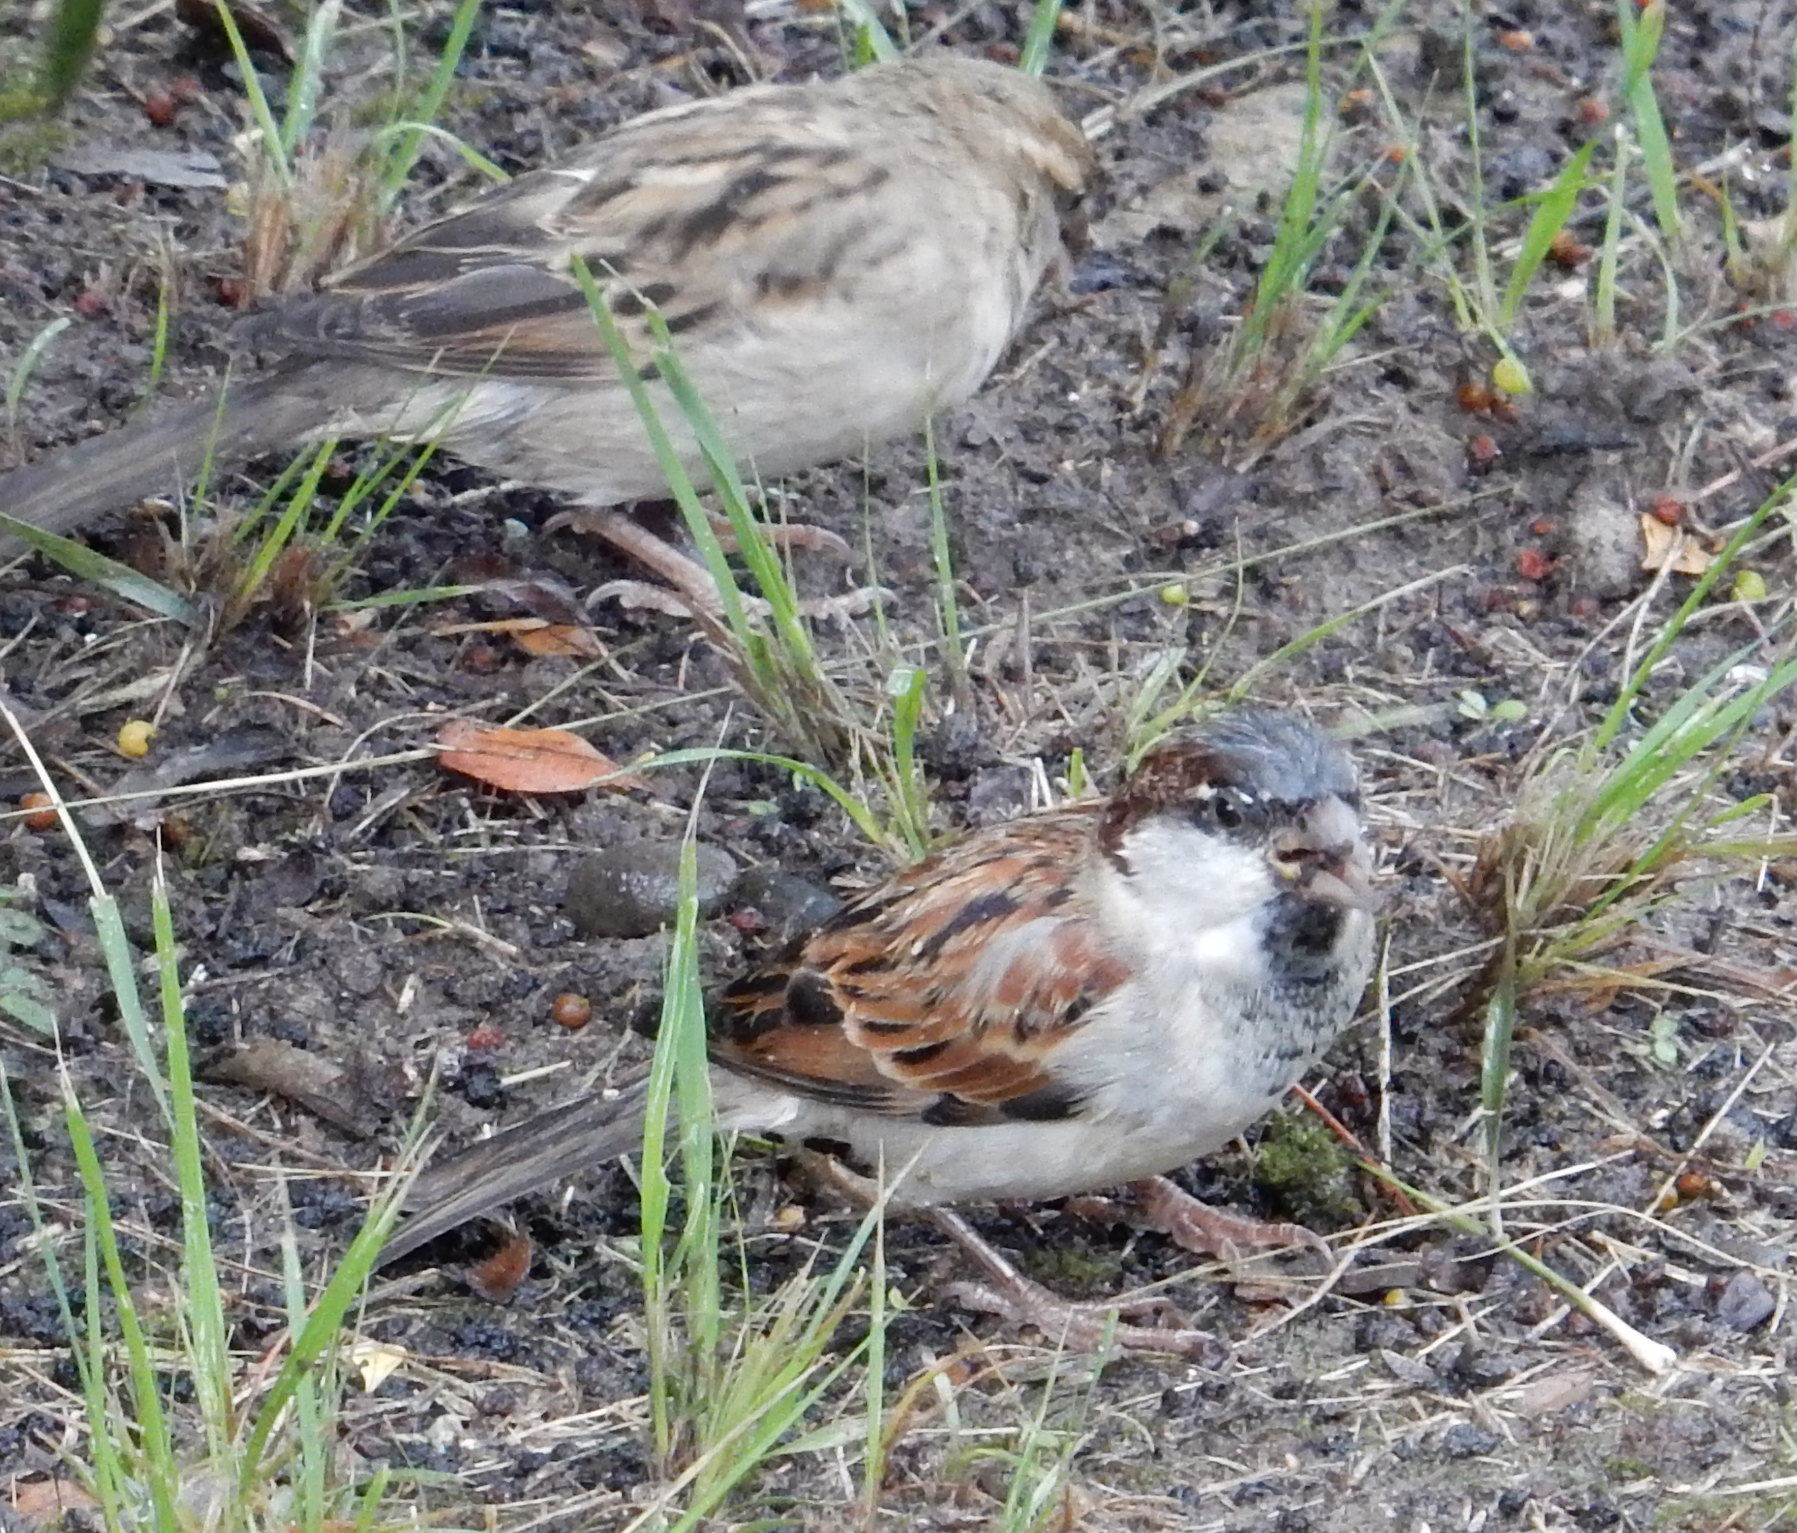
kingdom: Animalia
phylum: Chordata
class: Aves
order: Passeriformes
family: Passeridae
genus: Passer
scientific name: Passer domesticus
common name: House sparrow
